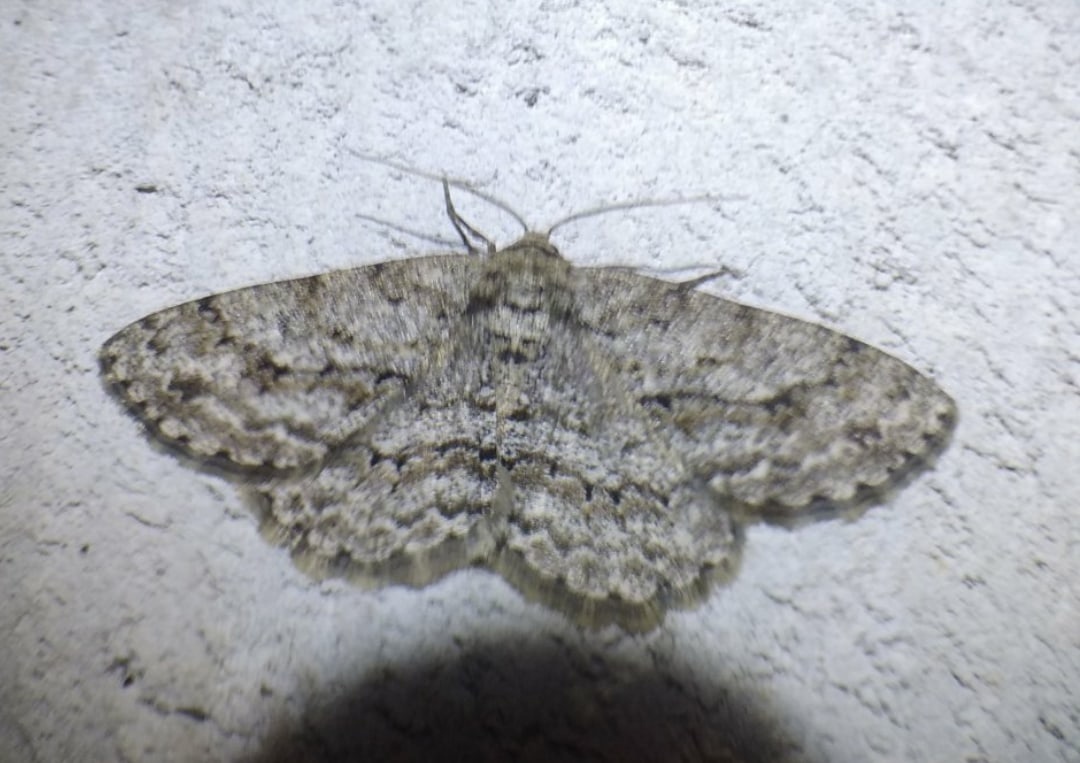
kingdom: Animalia
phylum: Arthropoda
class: Insecta
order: Lepidoptera
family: Geometridae
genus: Ectropis
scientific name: Ectropis crepuscularia
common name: Engrailed
